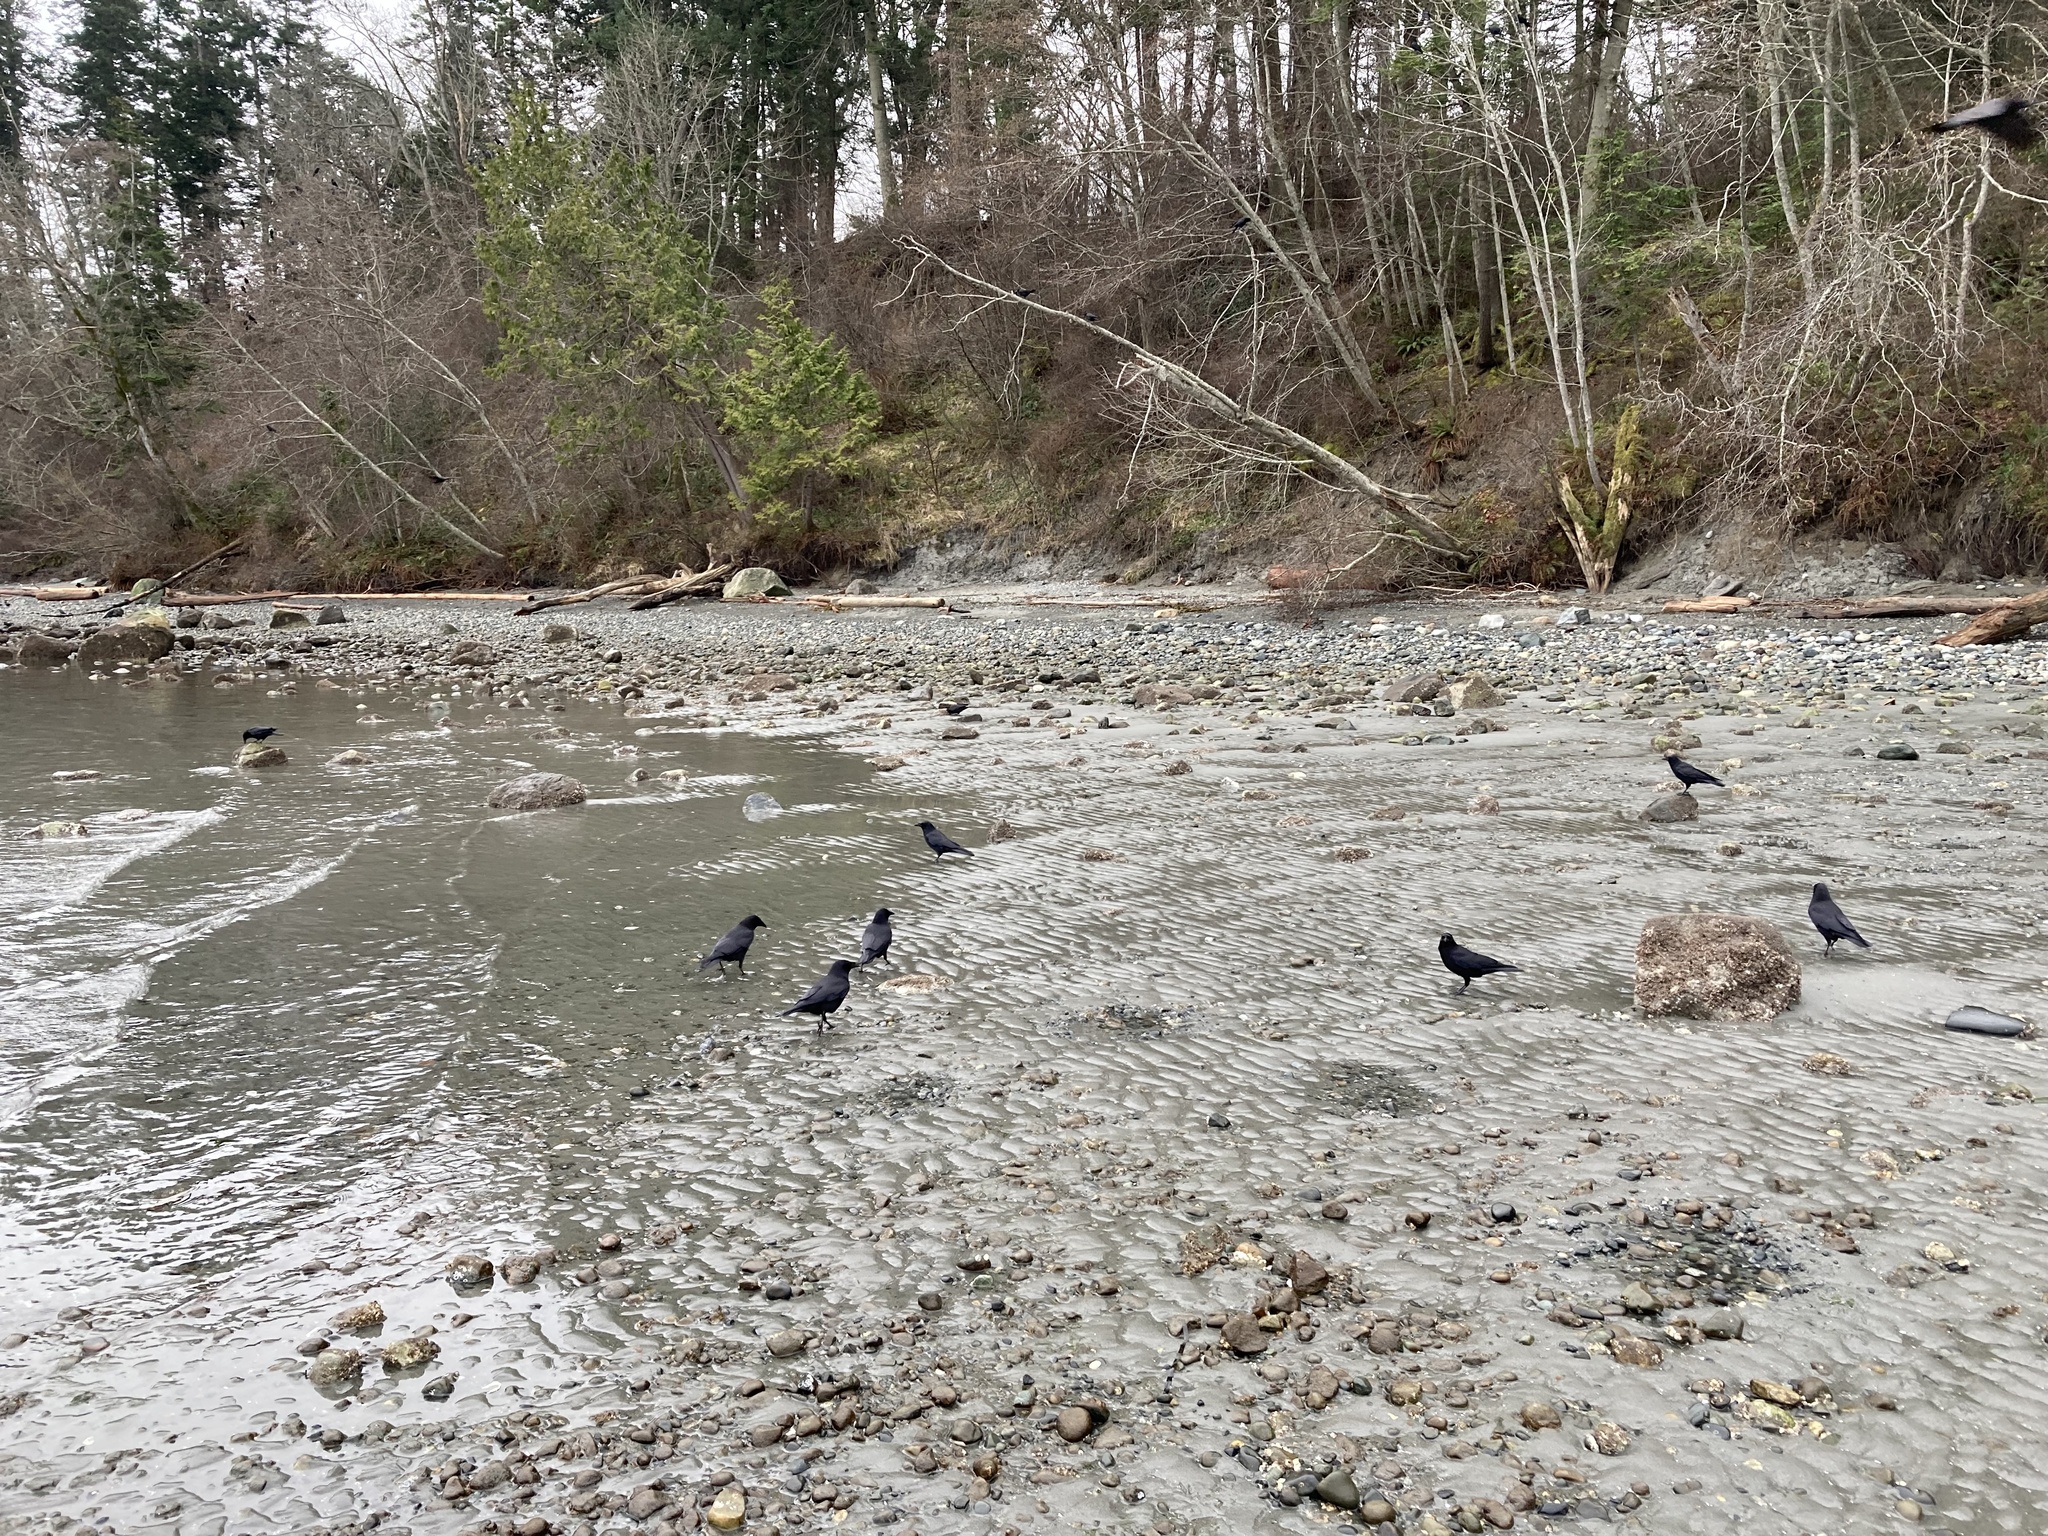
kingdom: Animalia
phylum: Chordata
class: Aves
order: Passeriformes
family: Corvidae
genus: Corvus
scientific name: Corvus brachyrhynchos
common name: American crow
